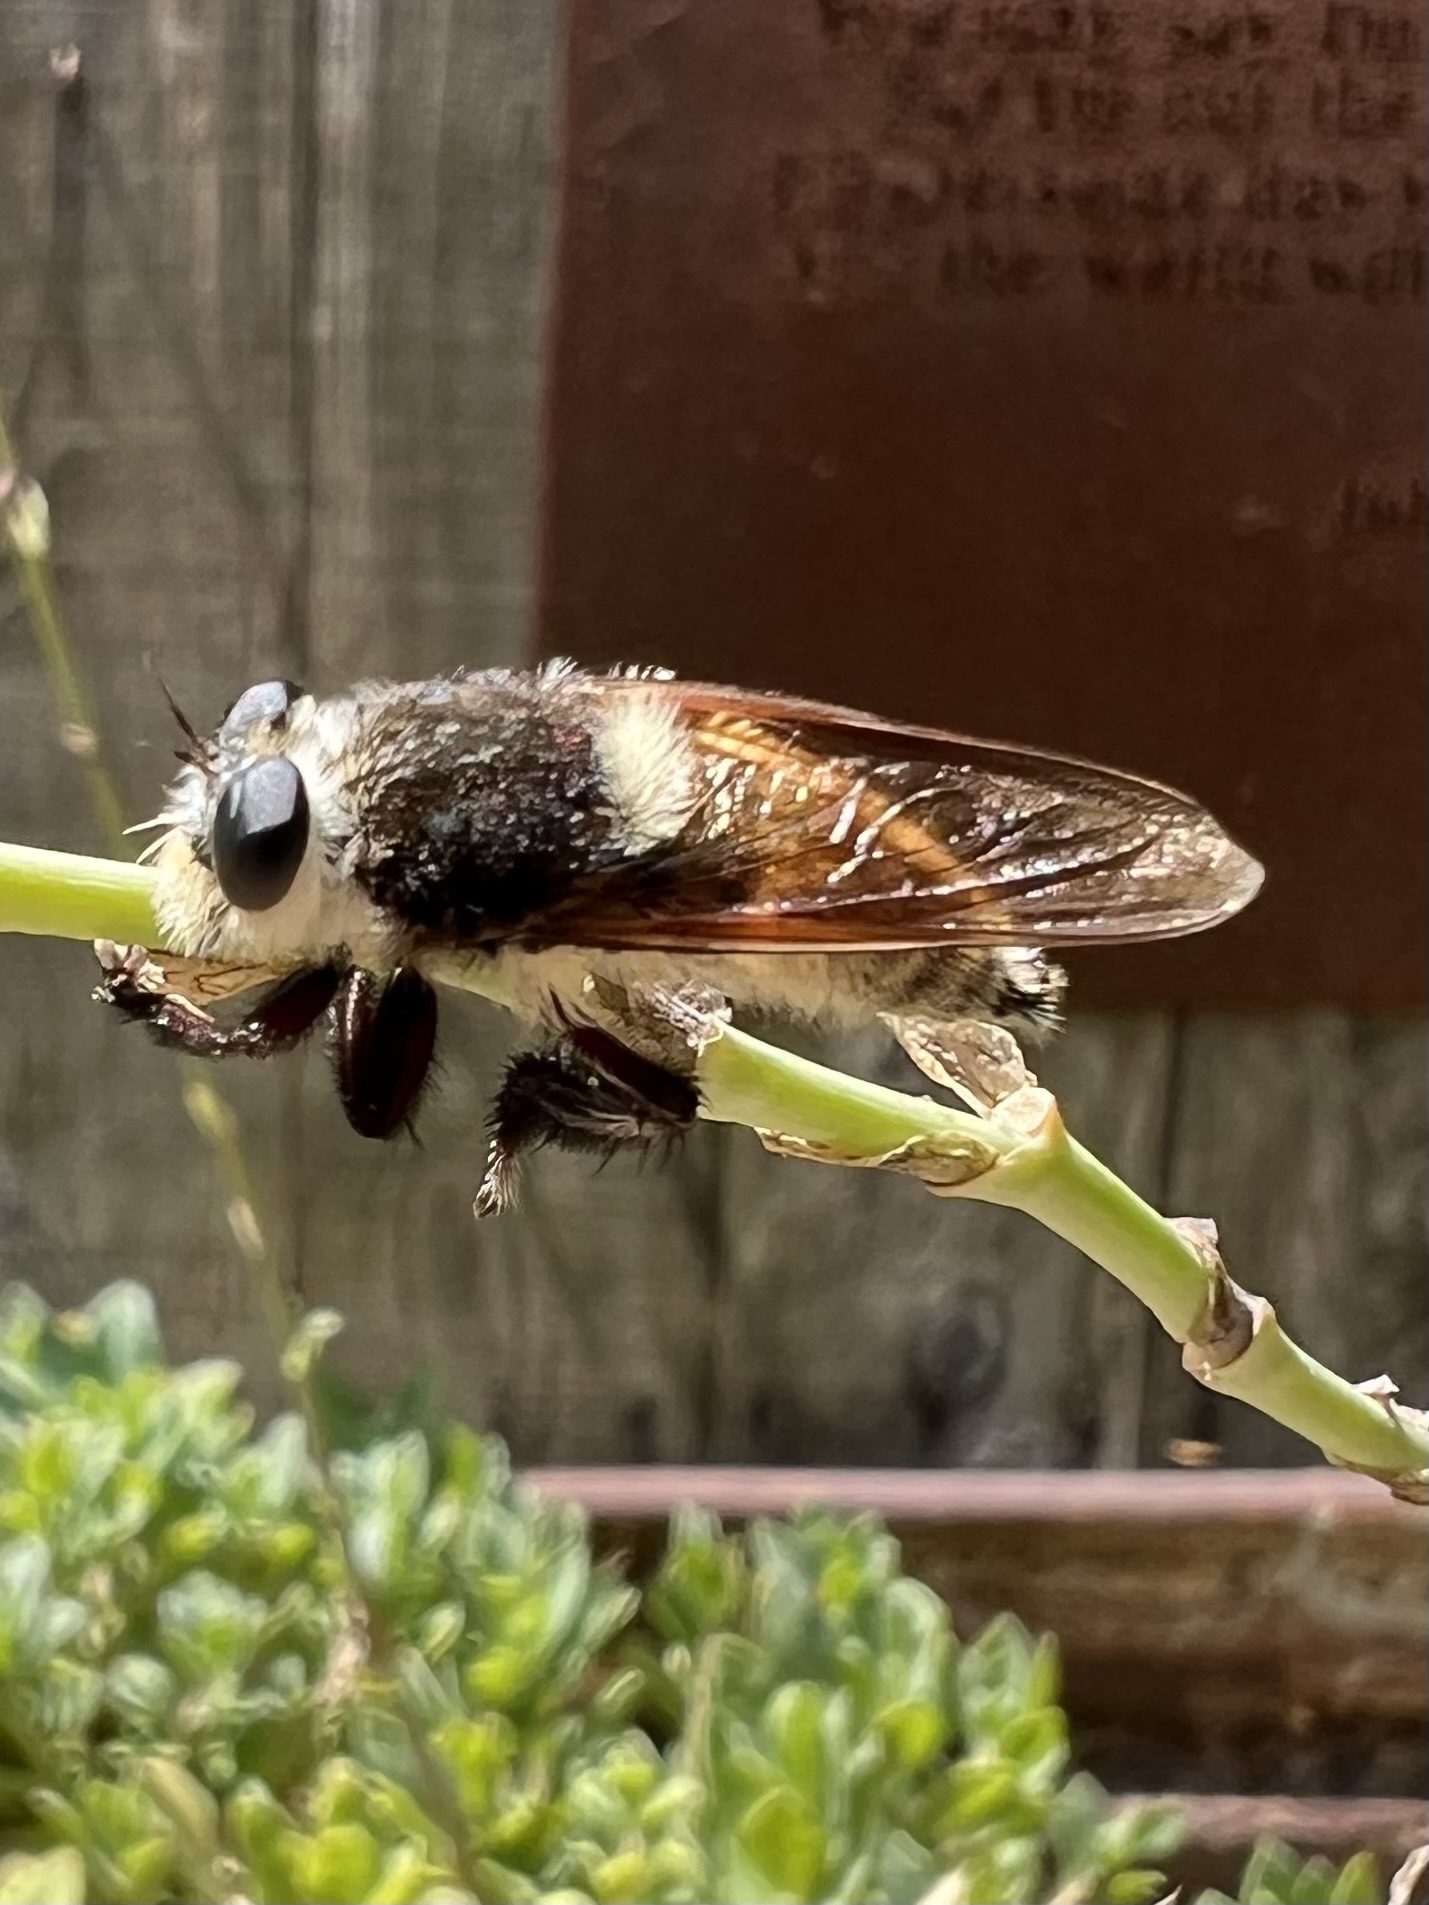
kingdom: Animalia
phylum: Arthropoda
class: Insecta
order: Diptera
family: Asilidae
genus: Mallophora
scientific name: Mallophora fautrix
